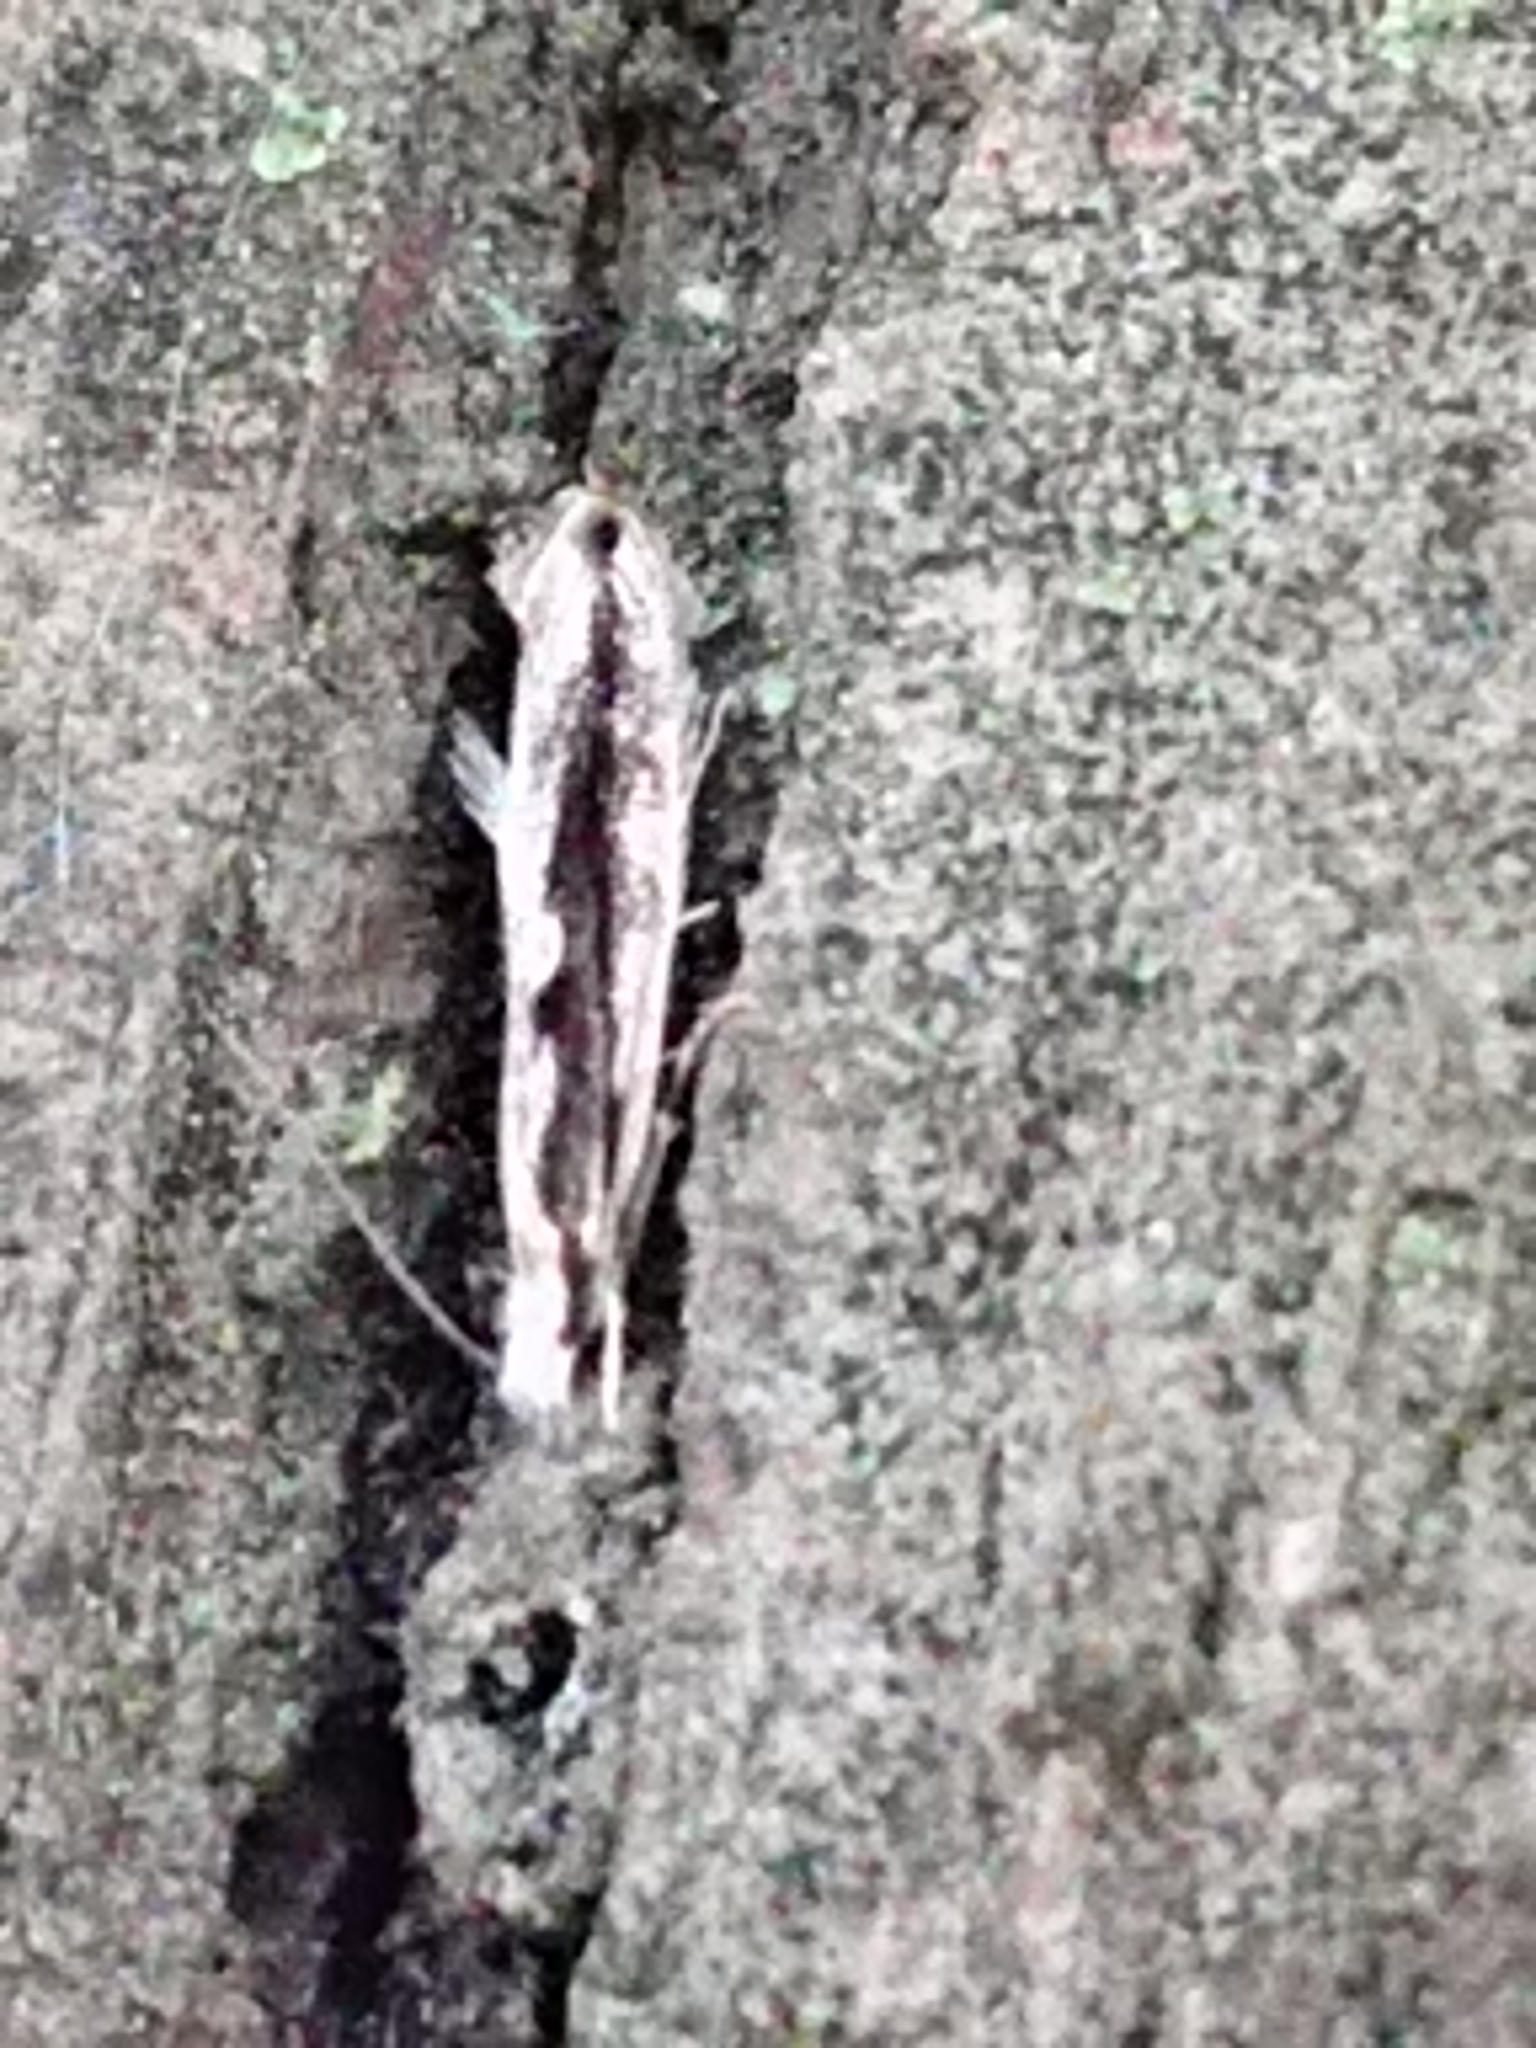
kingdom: Animalia
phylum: Arthropoda
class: Insecta
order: Lepidoptera
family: Tineidae
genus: Erechthias
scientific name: Erechthias fulguritella
